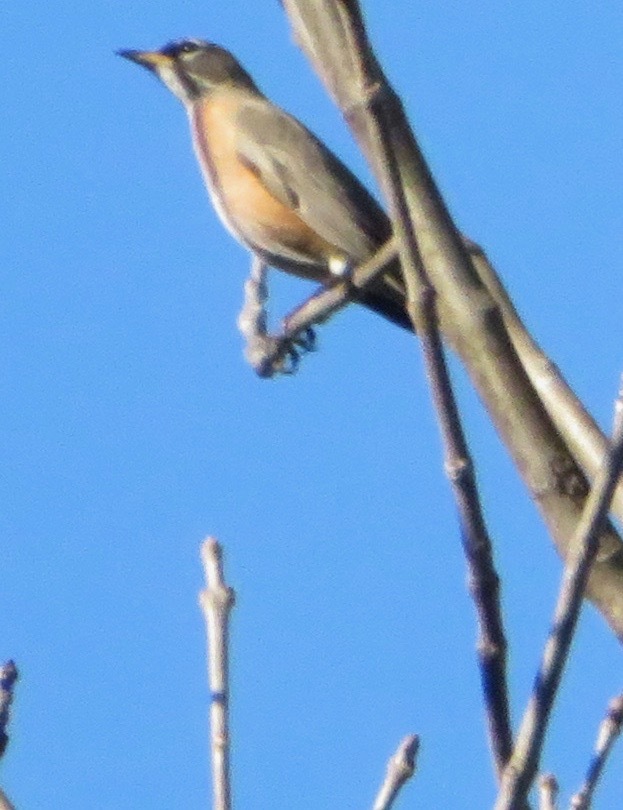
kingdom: Animalia
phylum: Chordata
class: Aves
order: Passeriformes
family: Turdidae
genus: Turdus
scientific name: Turdus migratorius
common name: American robin
